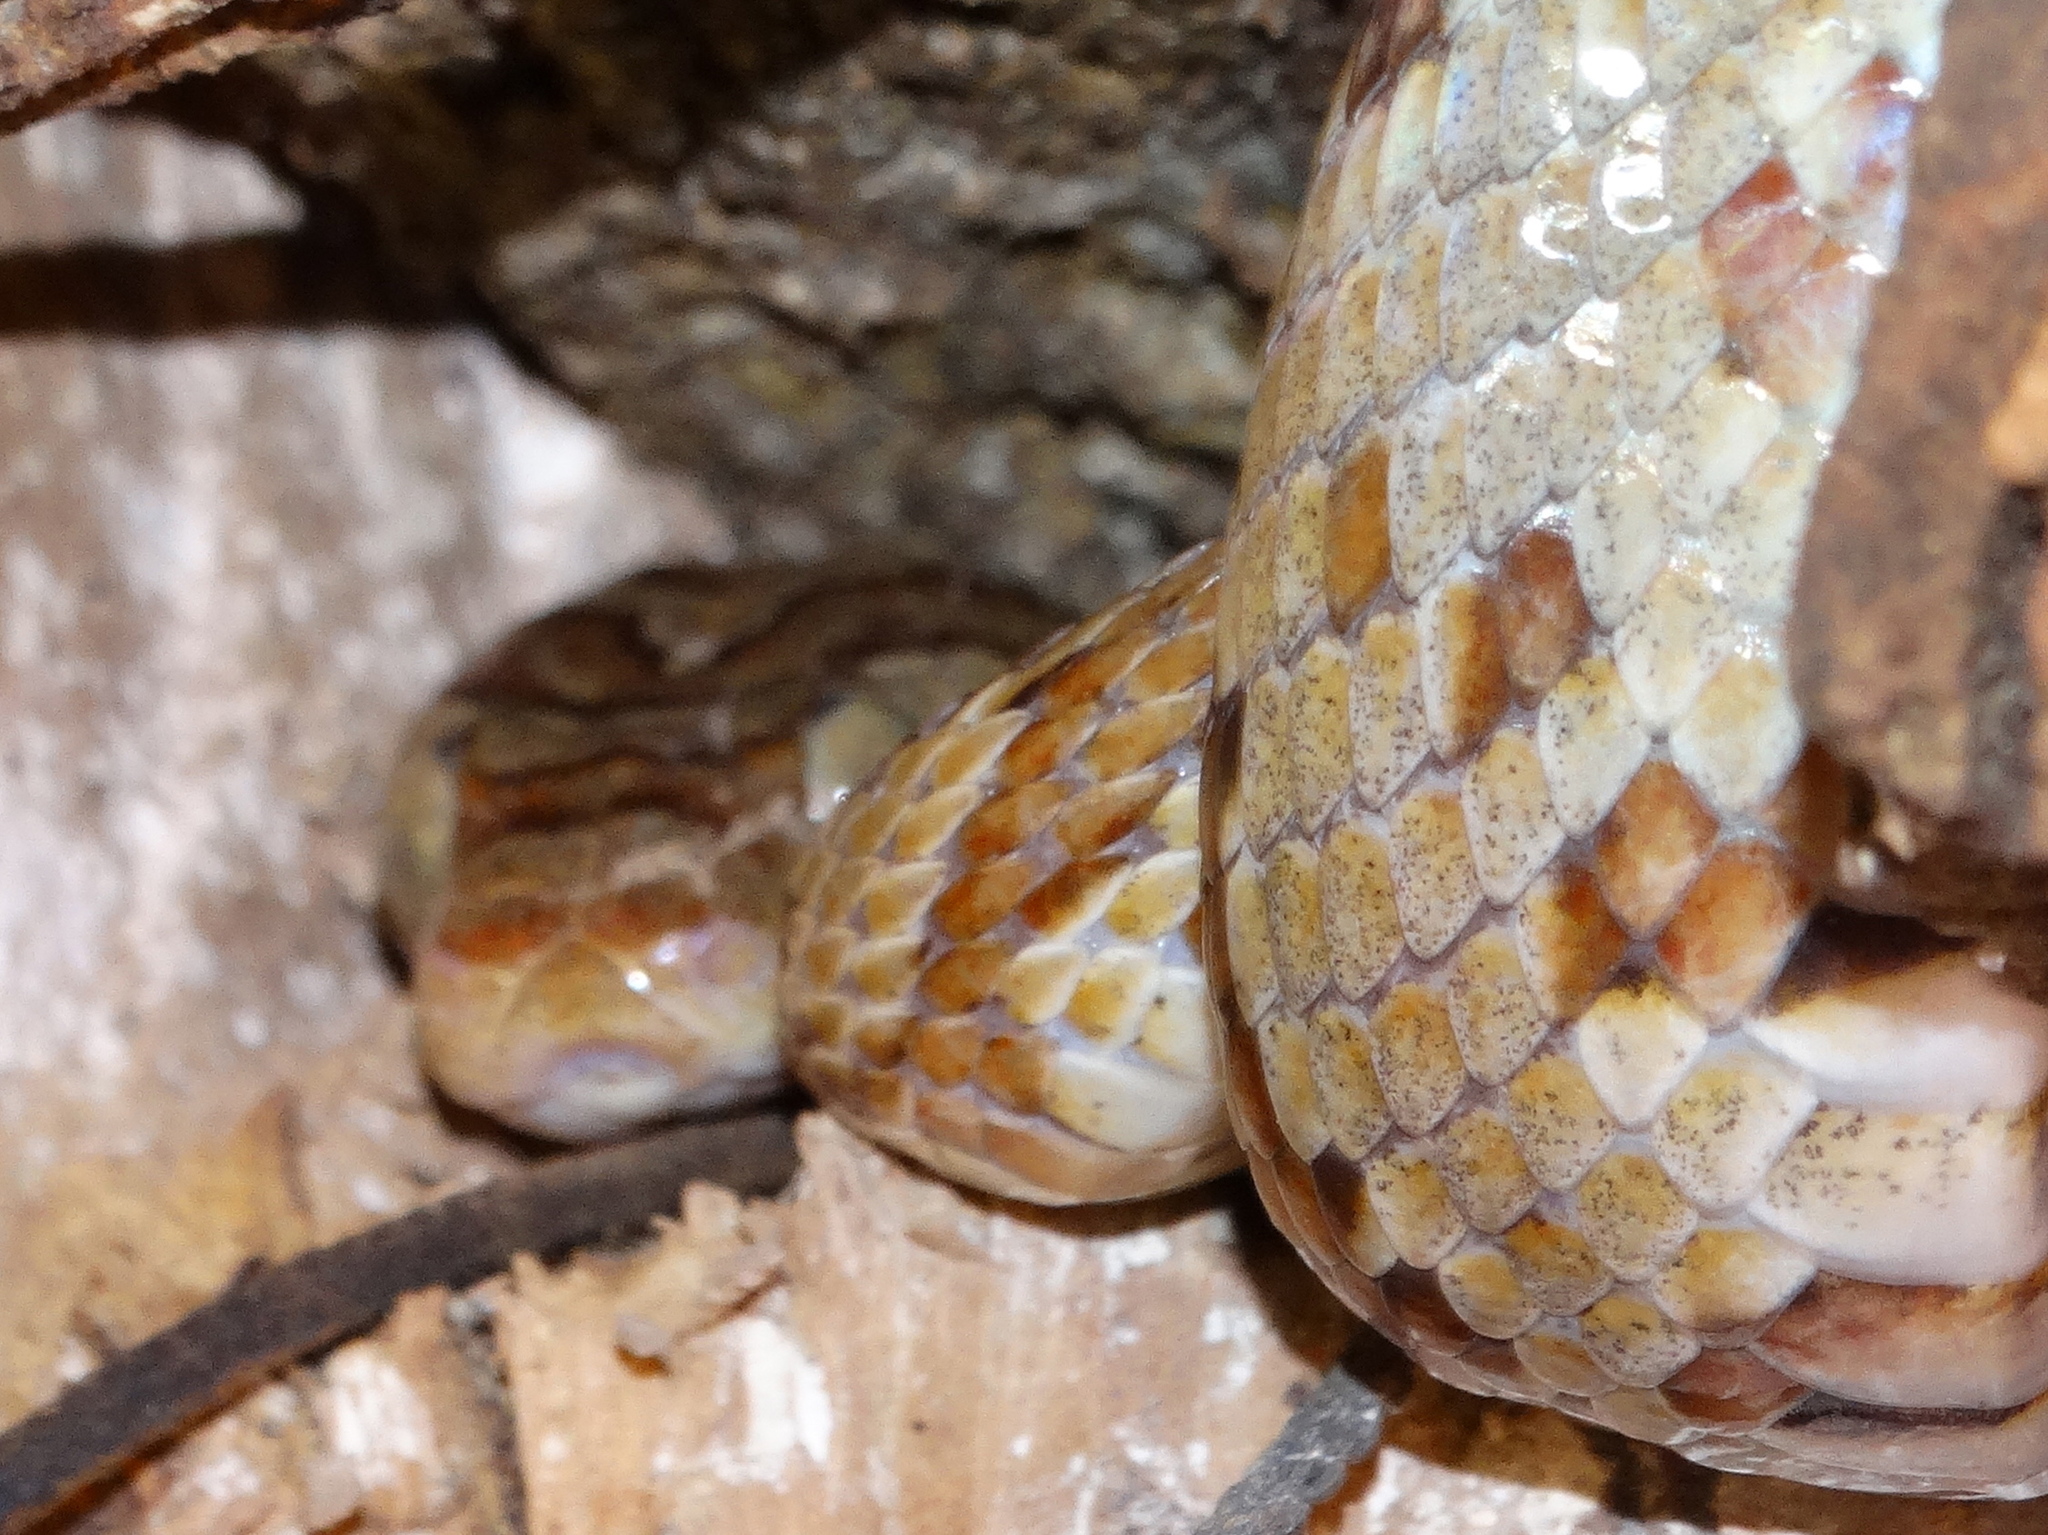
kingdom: Animalia
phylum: Chordata
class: Squamata
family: Colubridae
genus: Trimorphodon
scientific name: Trimorphodon paucimaculatus
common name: Sinaloan lyresnake
